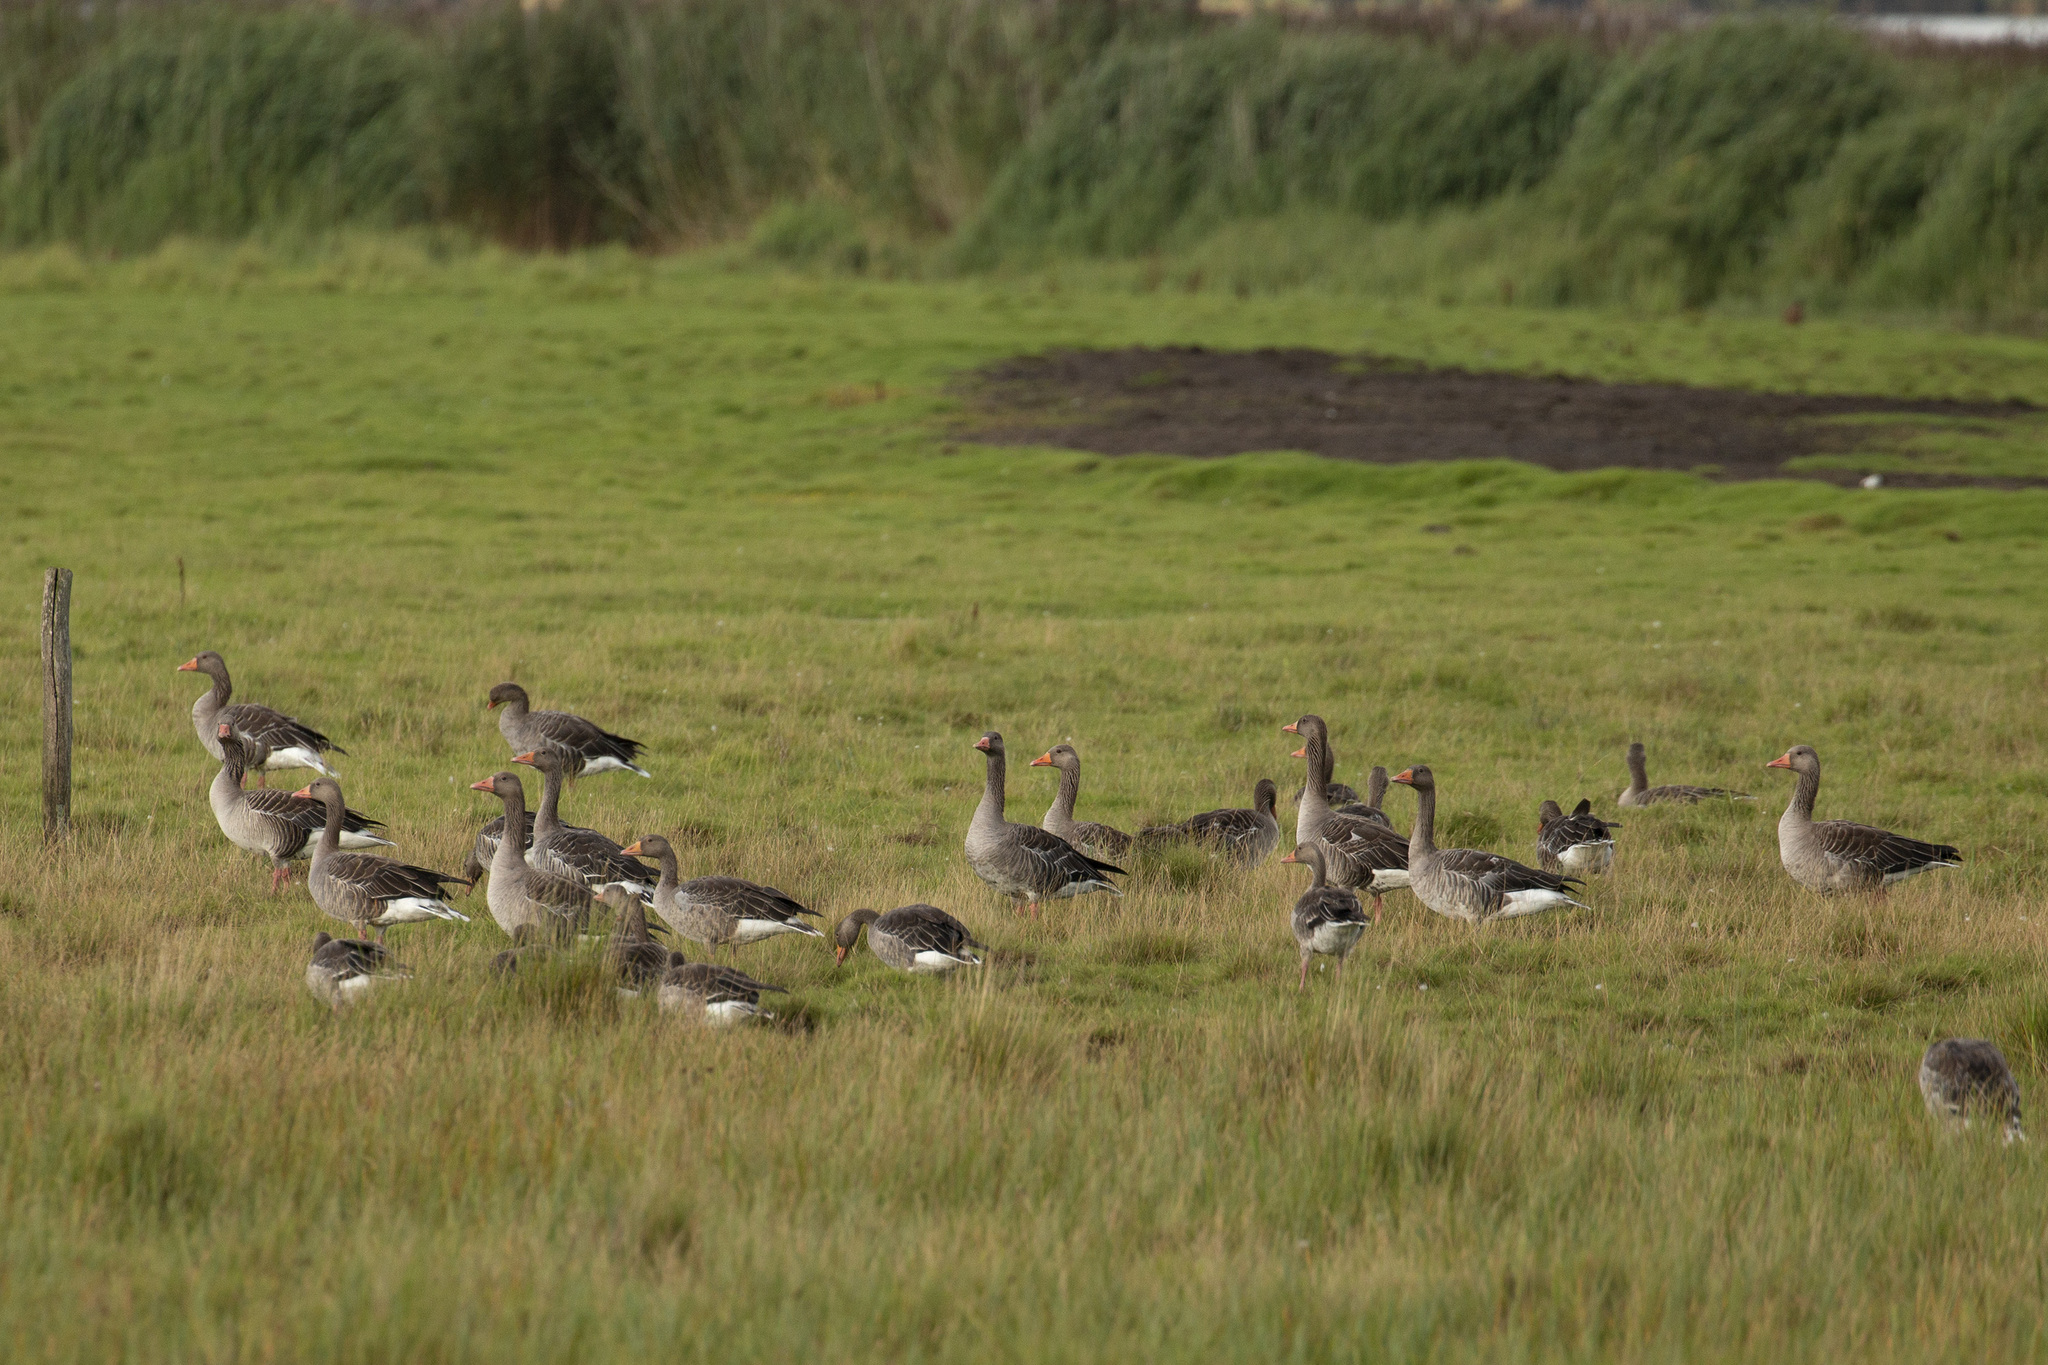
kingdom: Animalia
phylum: Chordata
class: Aves
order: Anseriformes
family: Anatidae
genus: Anser
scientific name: Anser anser
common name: Greylag goose
